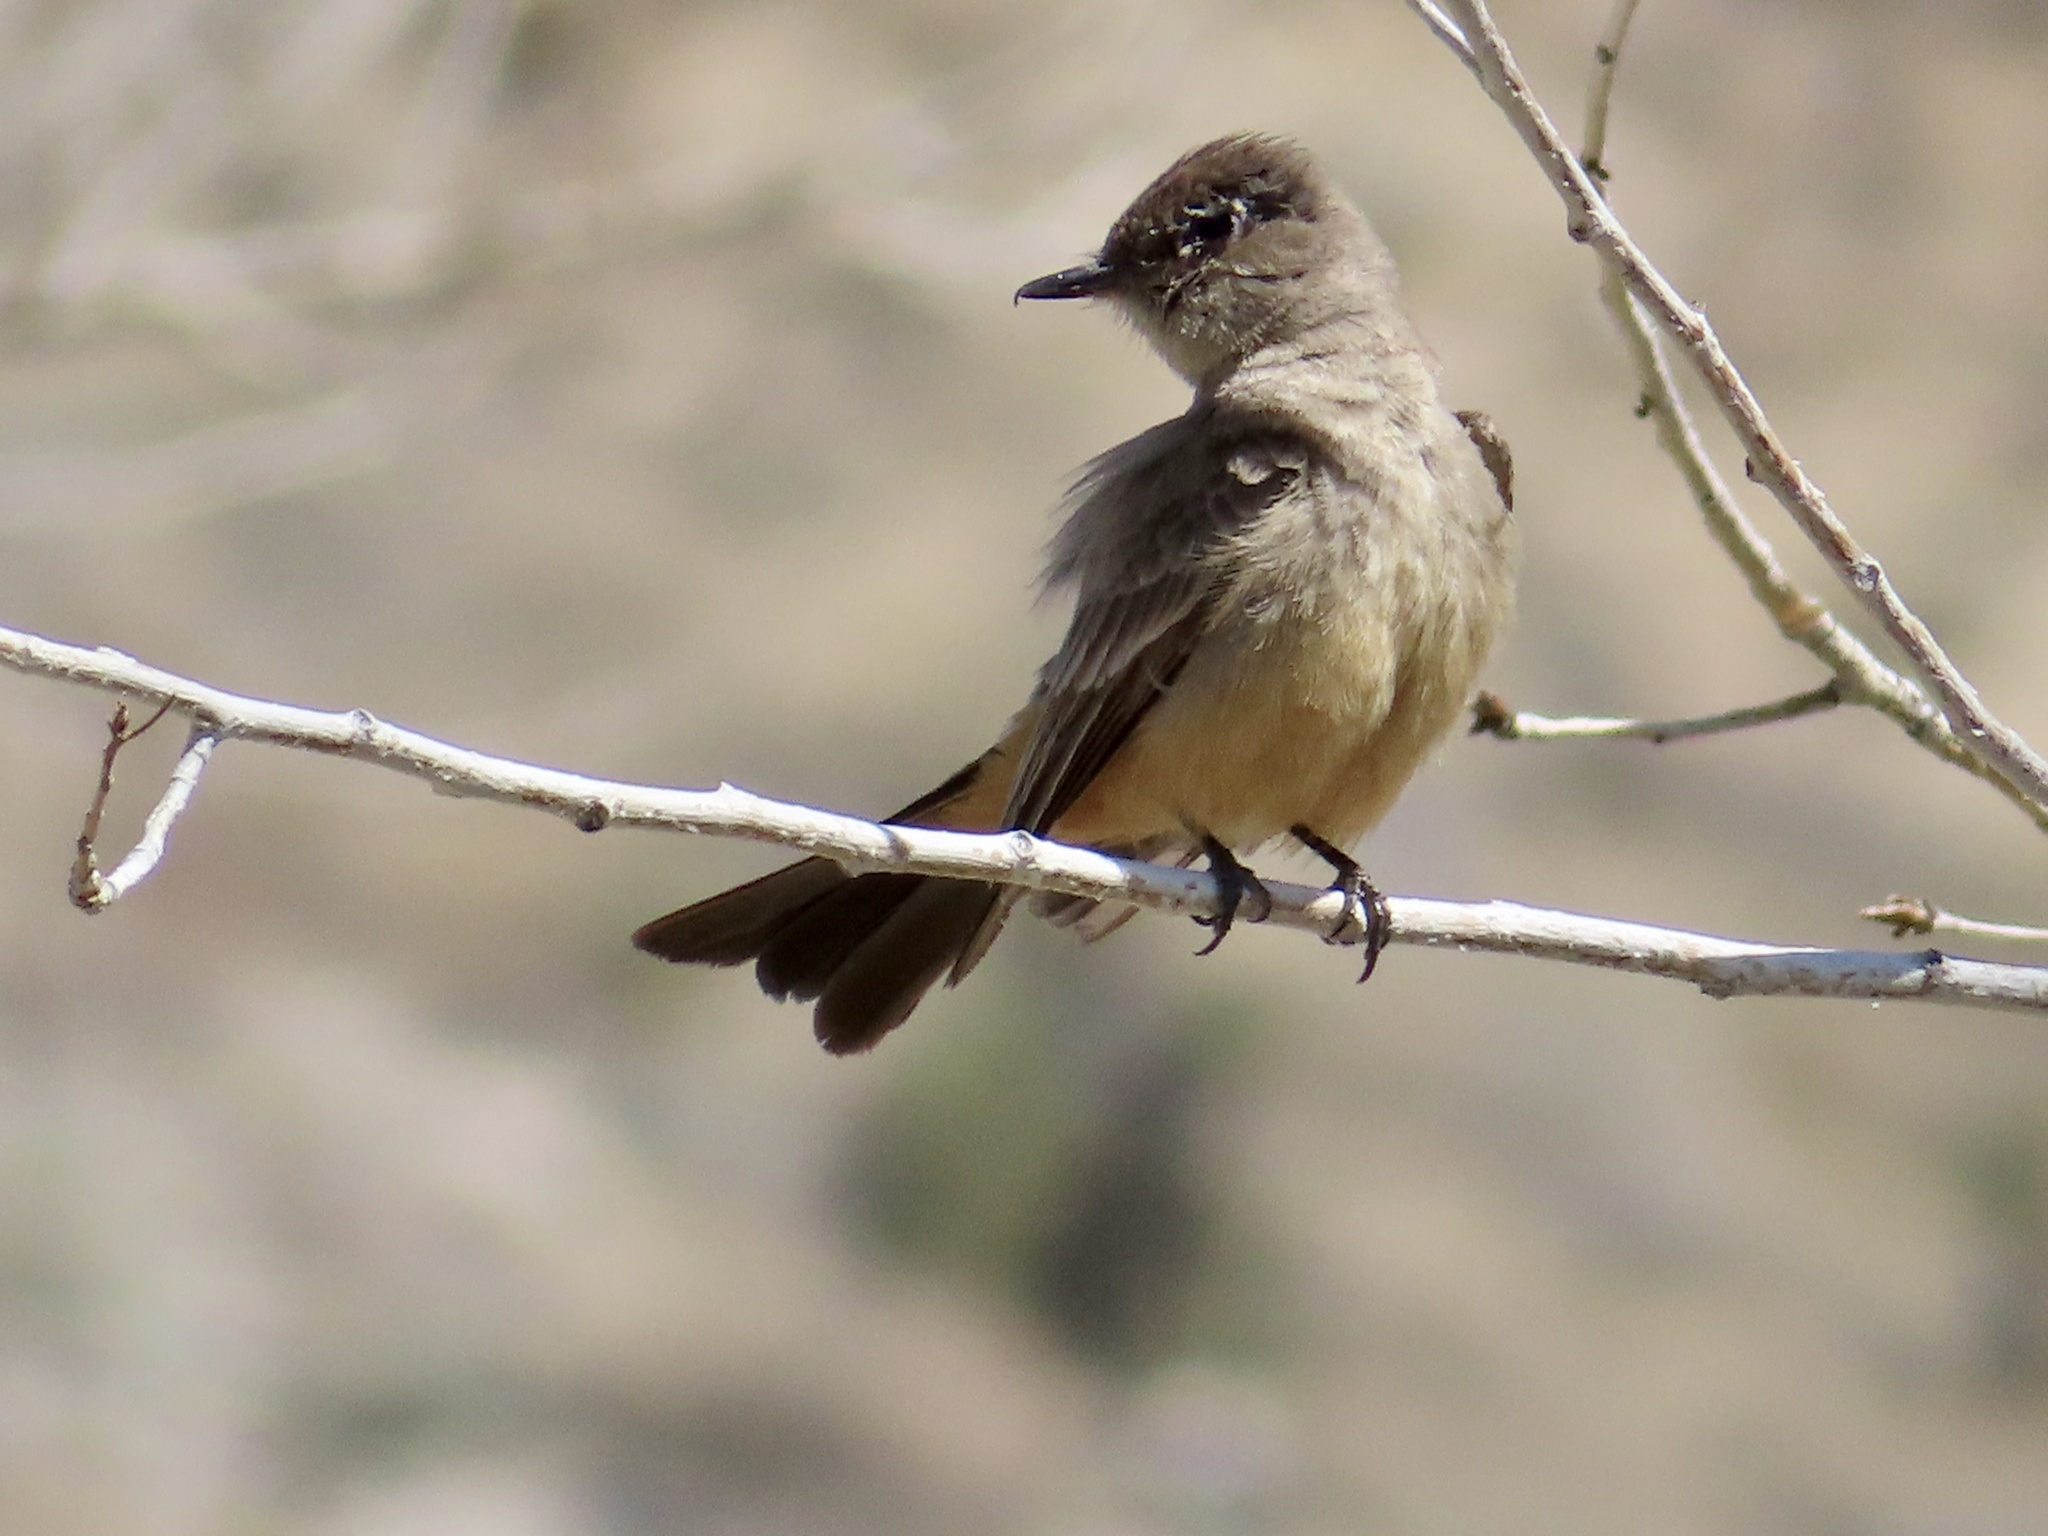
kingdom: Animalia
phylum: Chordata
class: Aves
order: Passeriformes
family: Tyrannidae
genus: Sayornis
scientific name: Sayornis saya
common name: Say's phoebe
